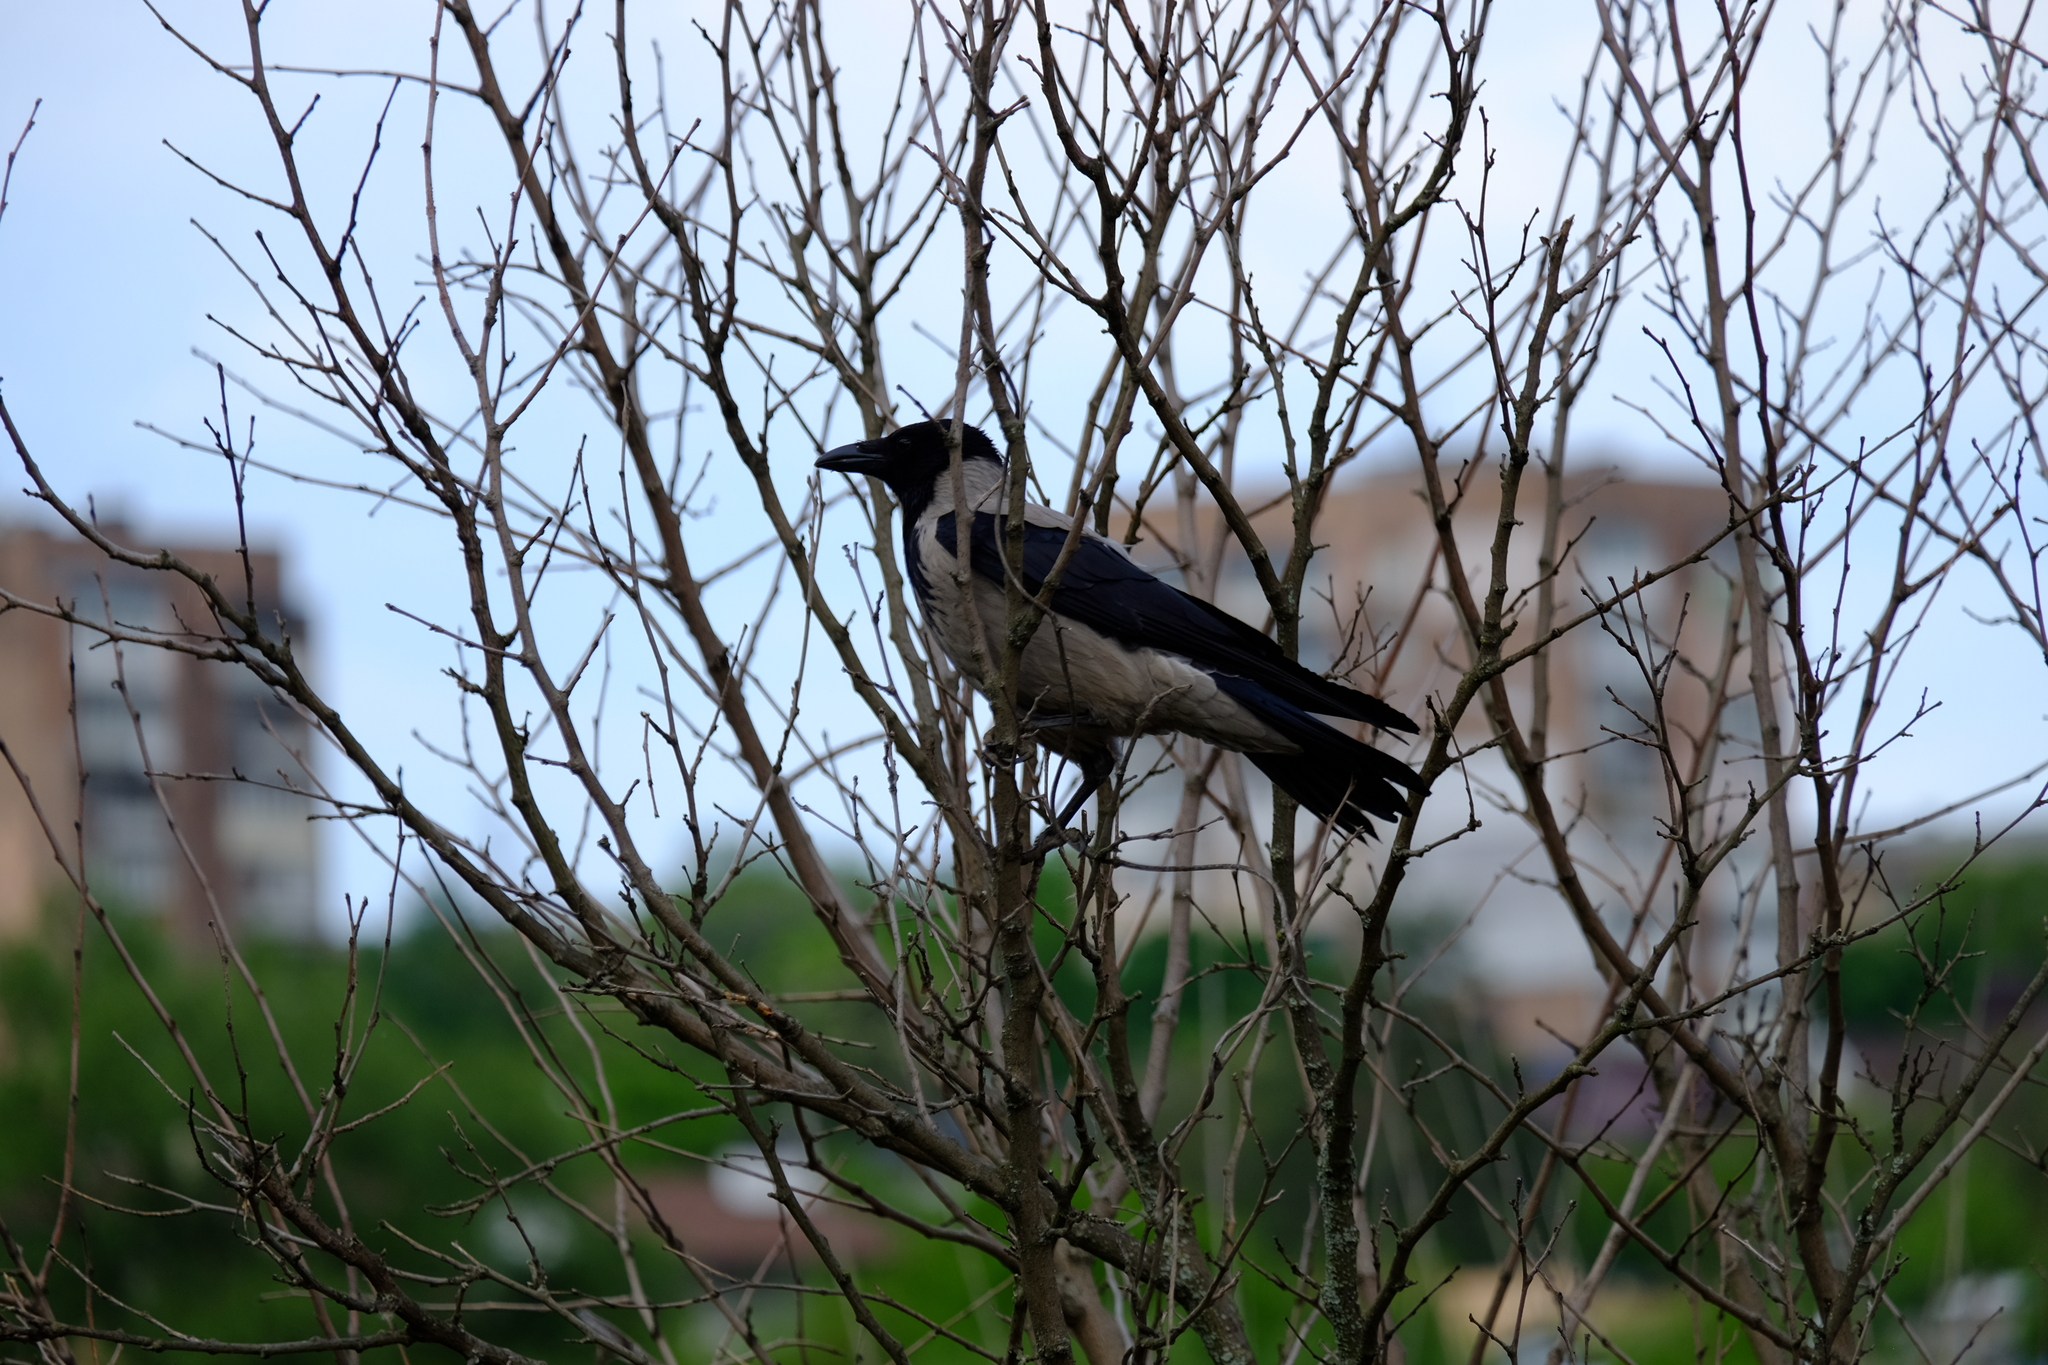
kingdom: Animalia
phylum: Chordata
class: Aves
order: Passeriformes
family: Corvidae
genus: Corvus
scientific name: Corvus cornix
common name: Hooded crow
